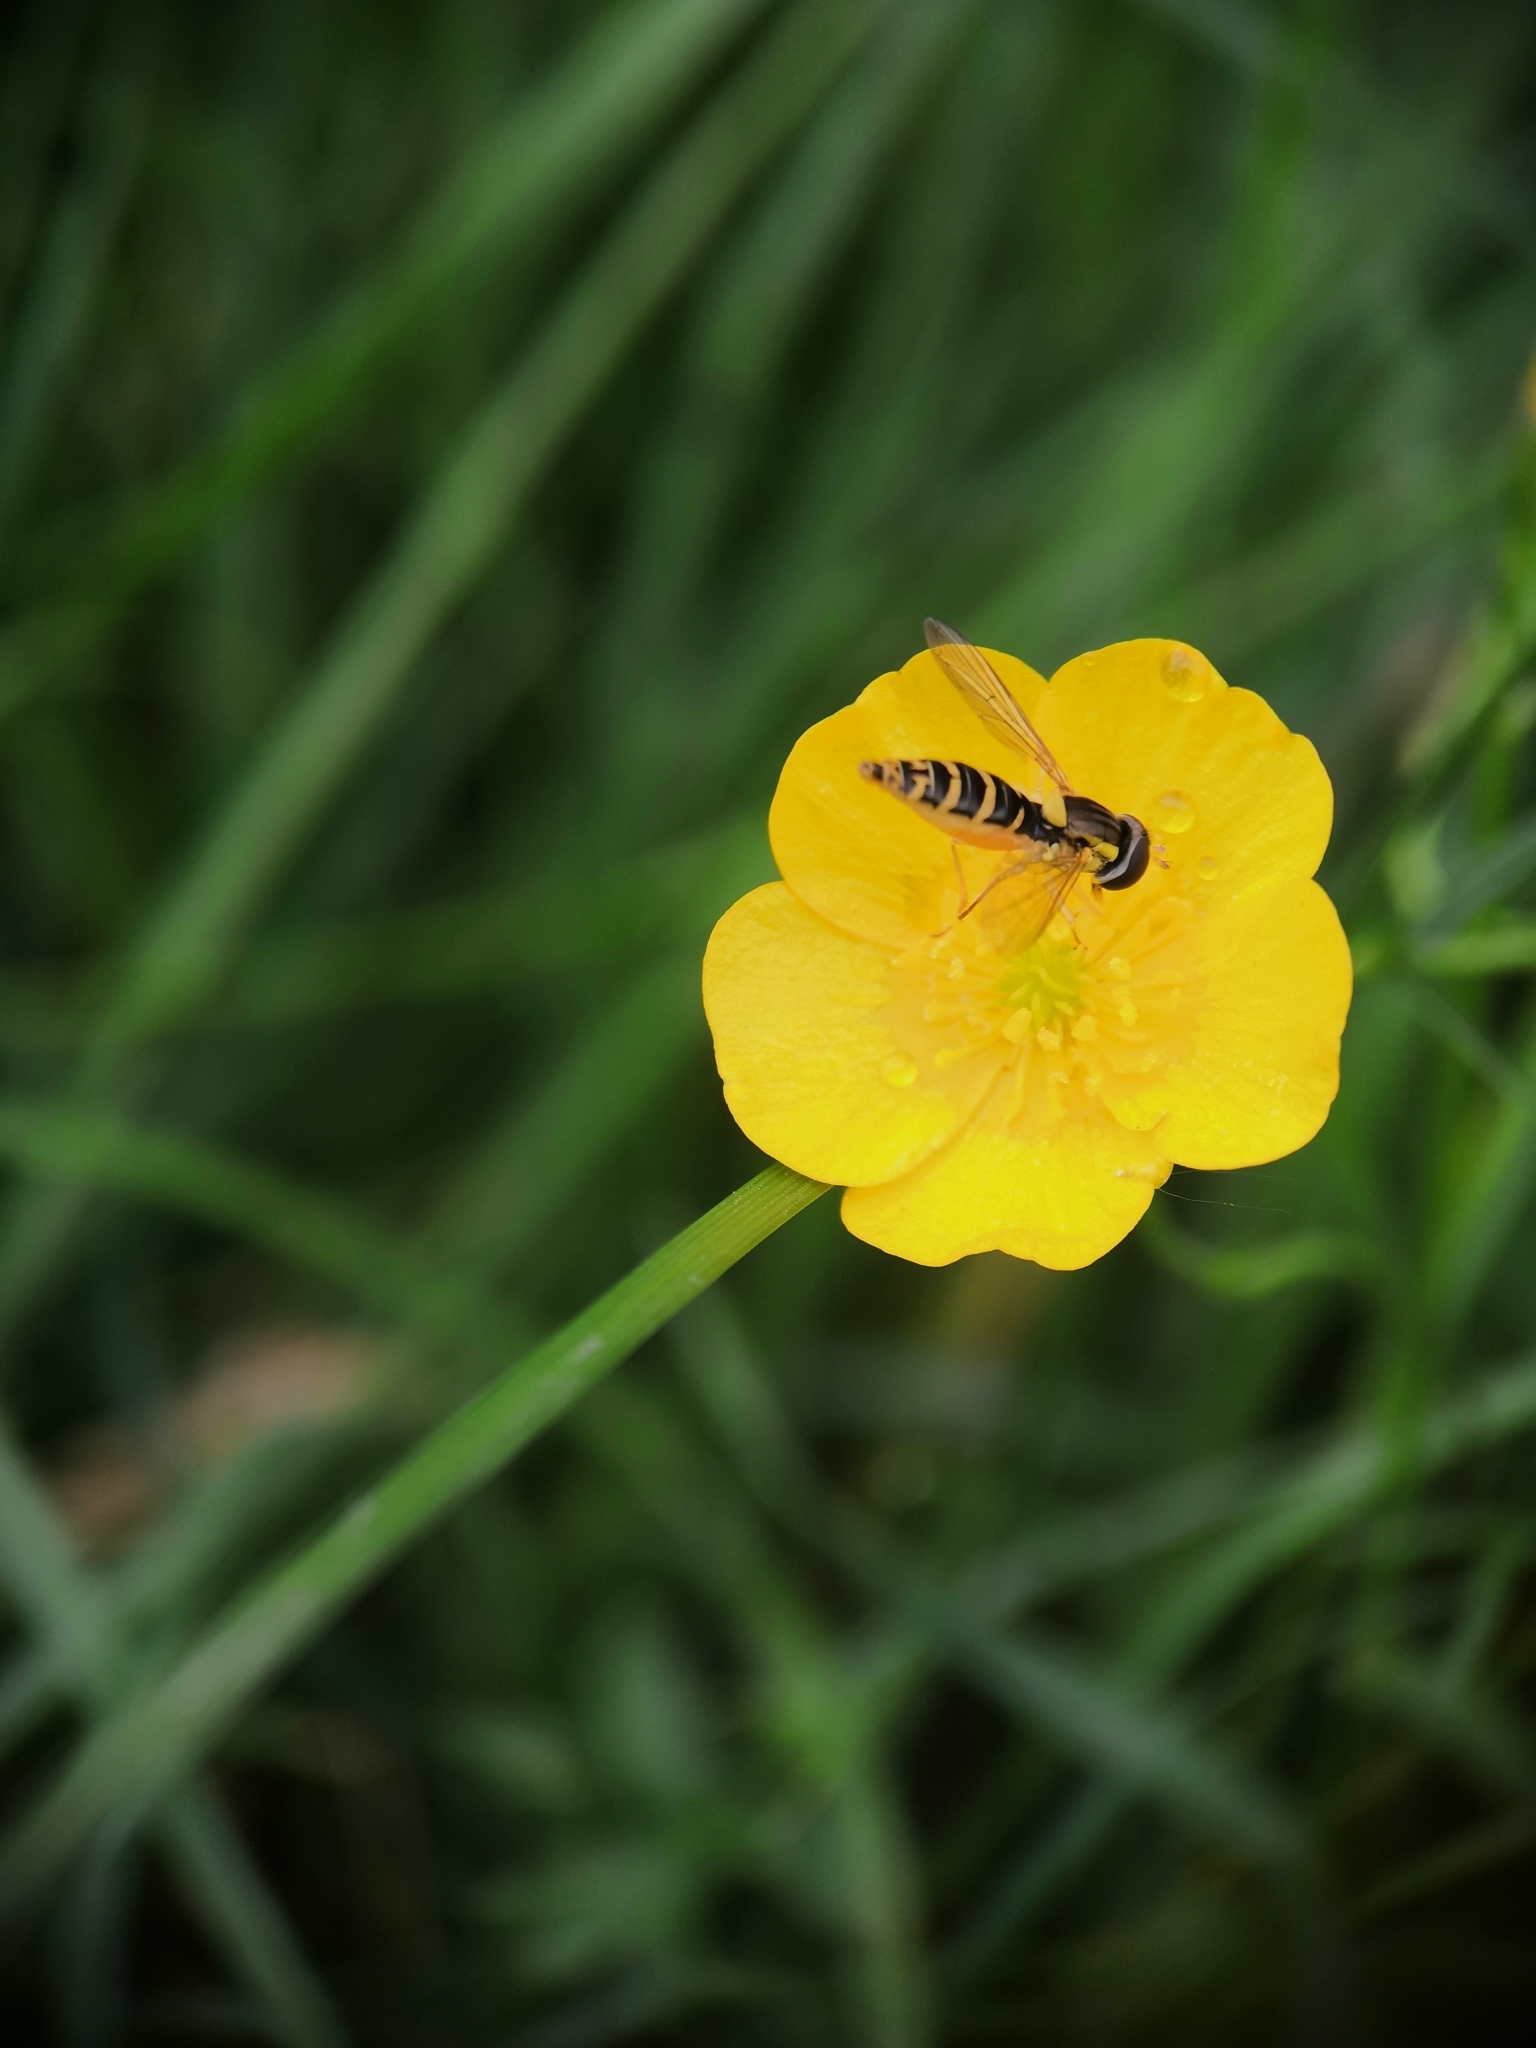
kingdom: Animalia
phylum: Arthropoda
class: Insecta
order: Diptera
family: Syrphidae
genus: Sphaerophoria
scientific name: Sphaerophoria
